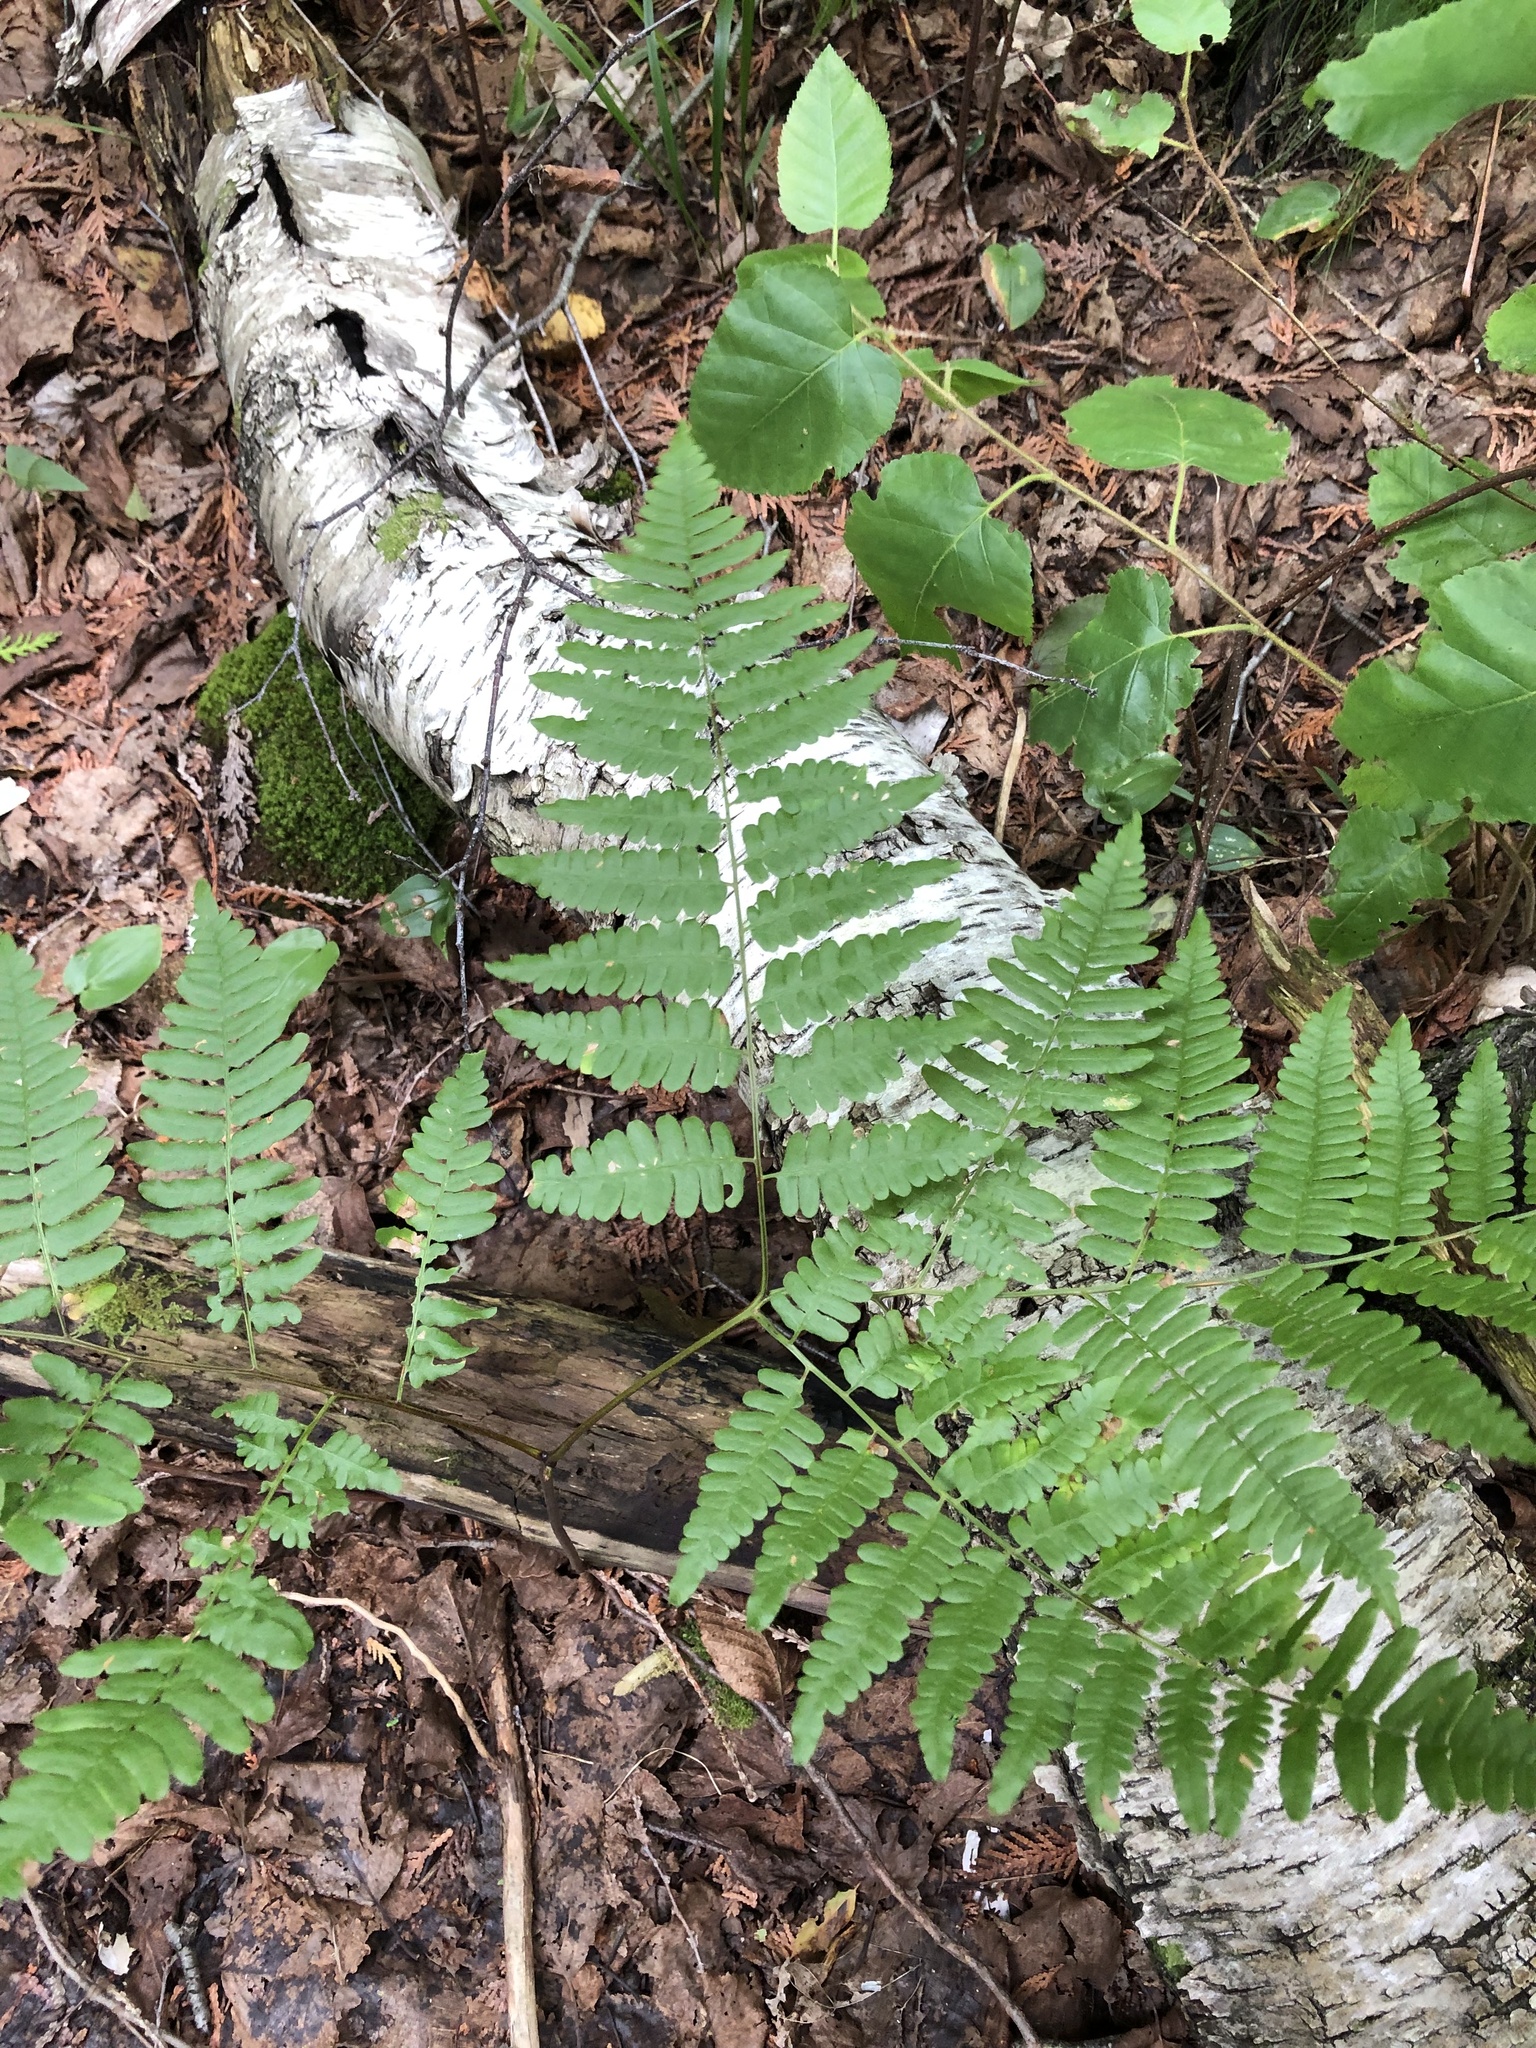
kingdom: Plantae
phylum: Tracheophyta
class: Polypodiopsida
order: Polypodiales
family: Dennstaedtiaceae
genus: Pteridium
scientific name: Pteridium aquilinum
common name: Bracken
